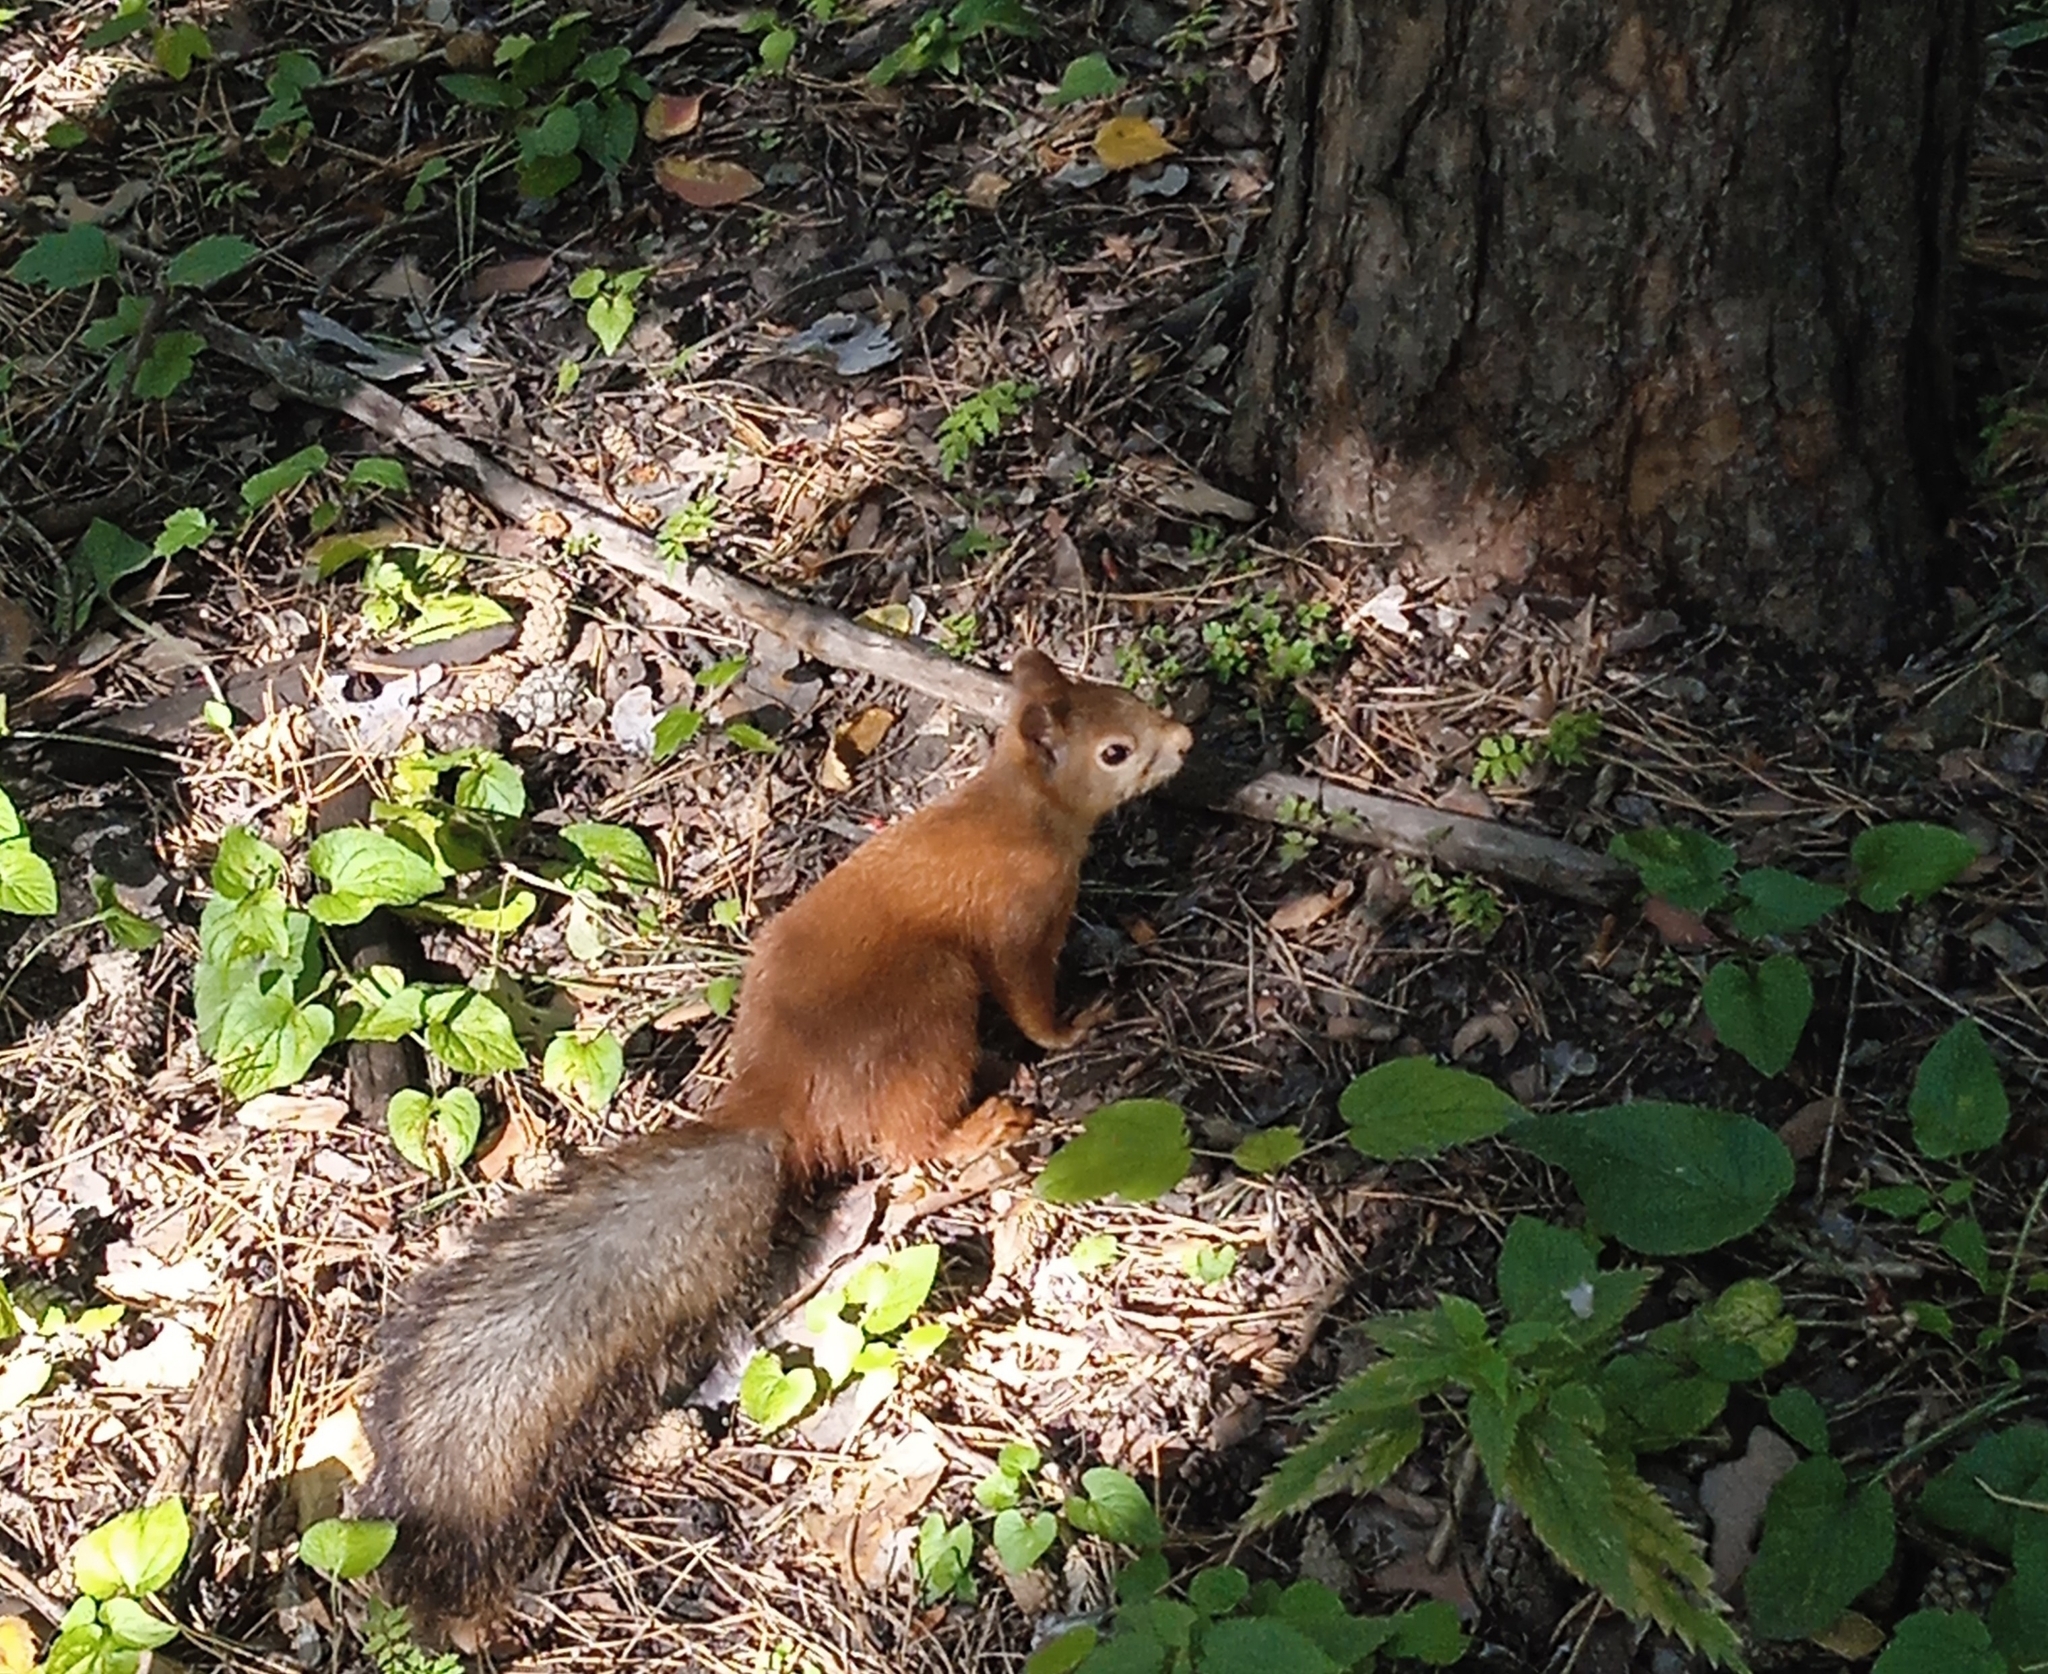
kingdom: Animalia
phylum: Chordata
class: Mammalia
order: Rodentia
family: Sciuridae
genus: Sciurus
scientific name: Sciurus vulgaris
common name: Eurasian red squirrel
